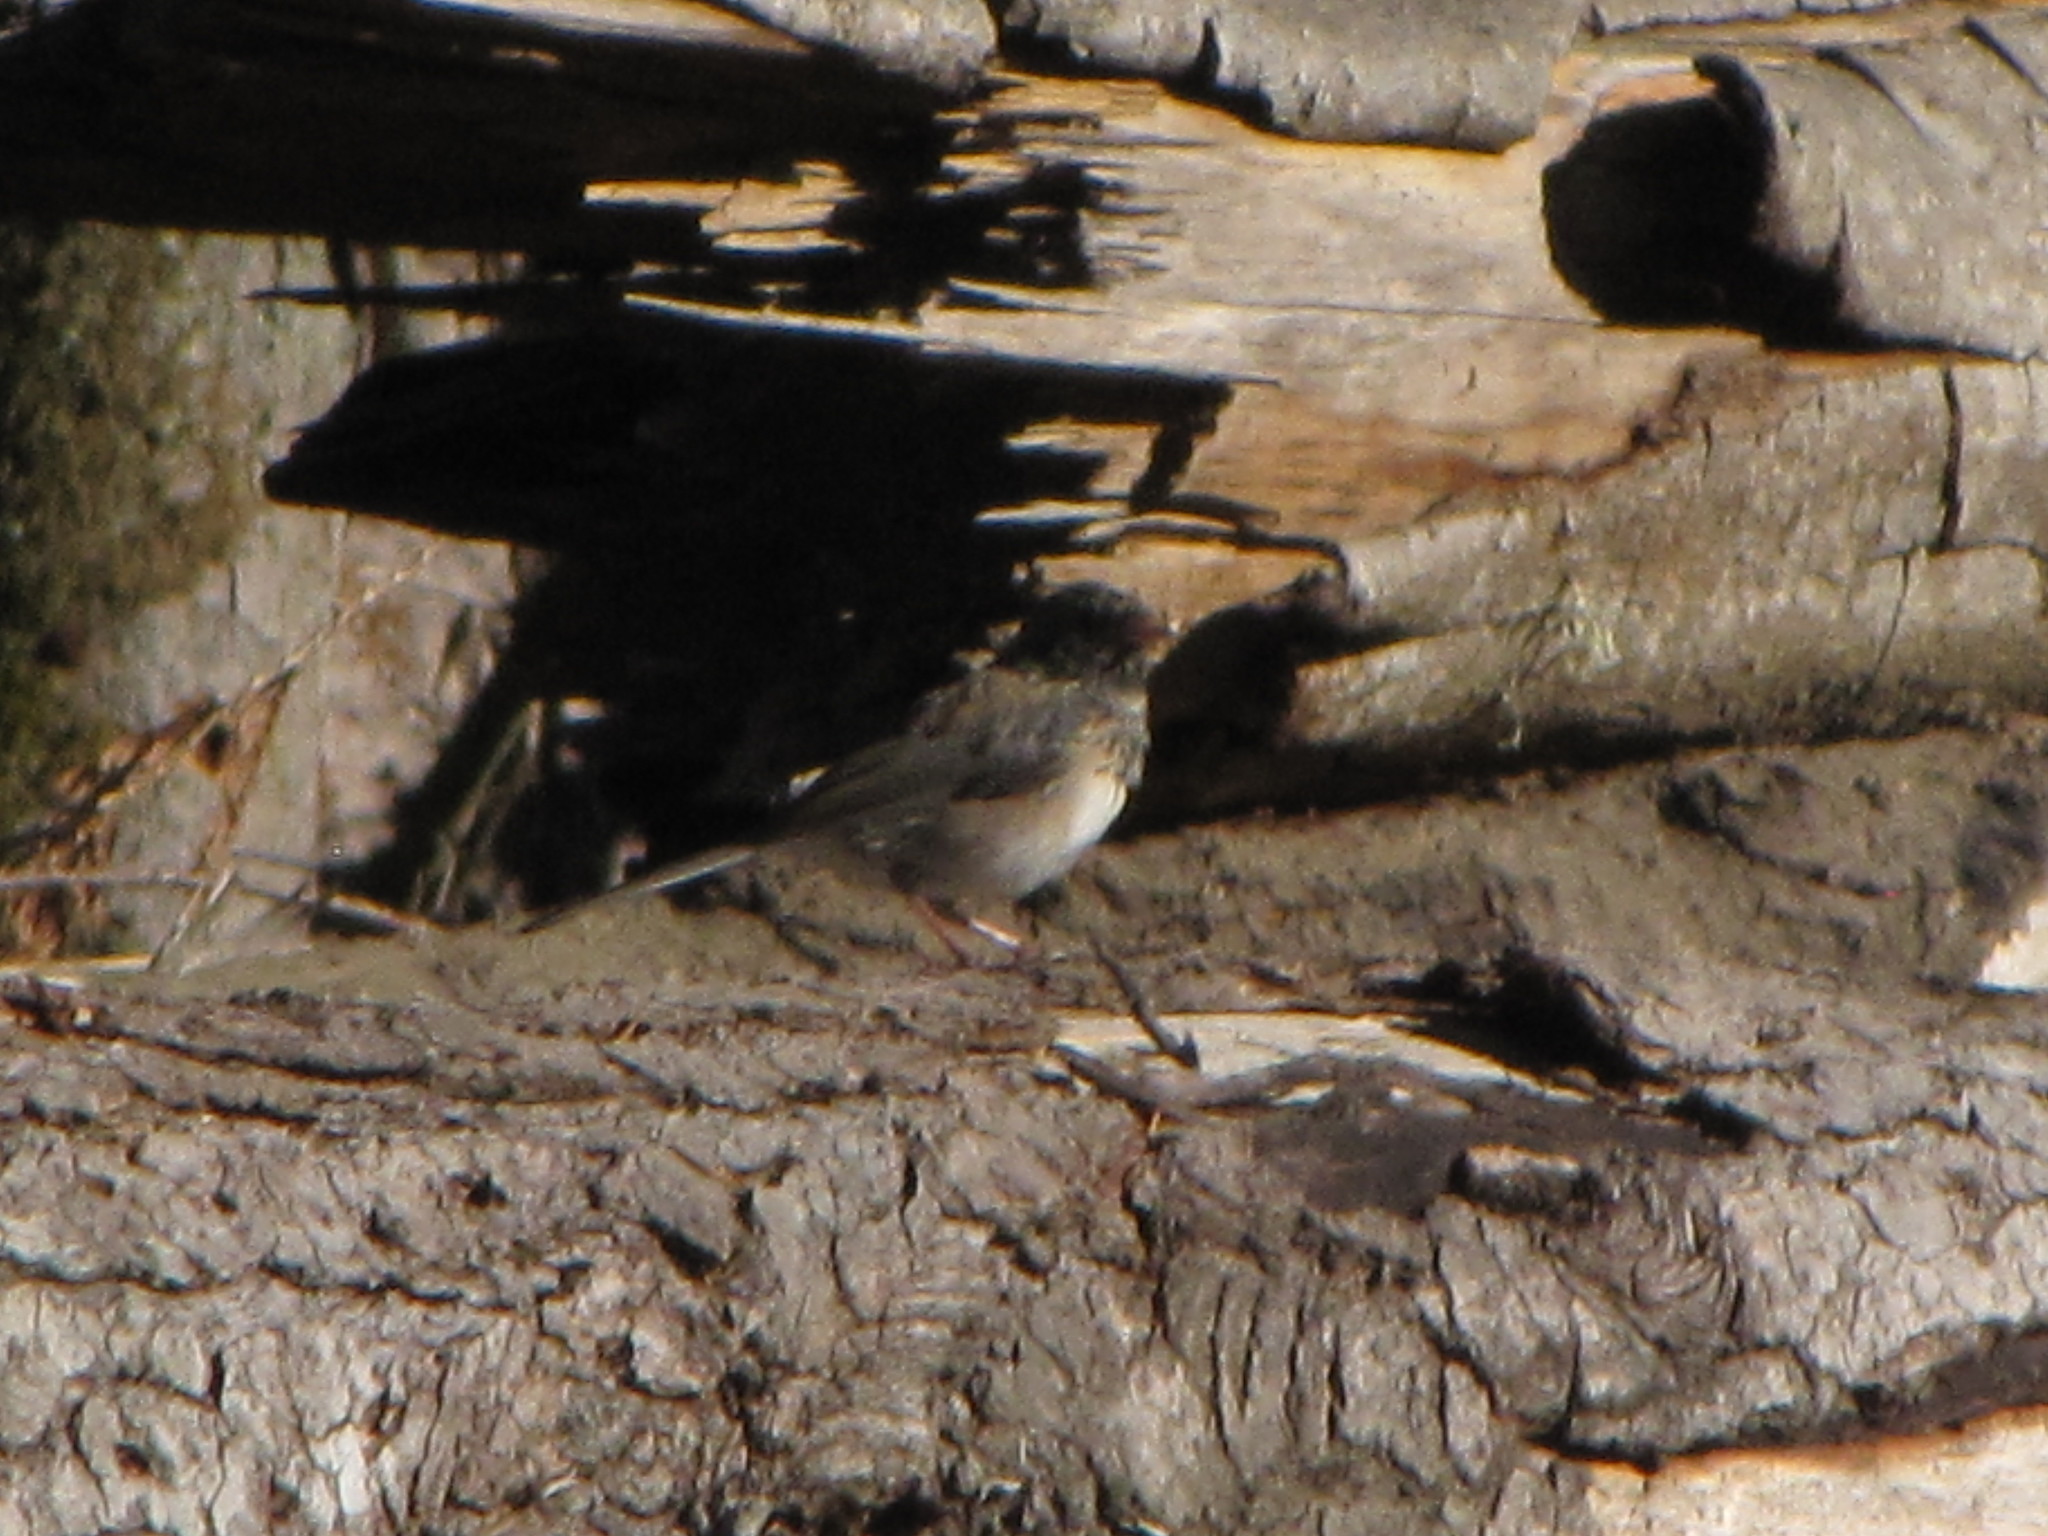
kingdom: Animalia
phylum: Chordata
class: Aves
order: Passeriformes
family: Passerellidae
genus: Junco
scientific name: Junco hyemalis
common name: Dark-eyed junco
